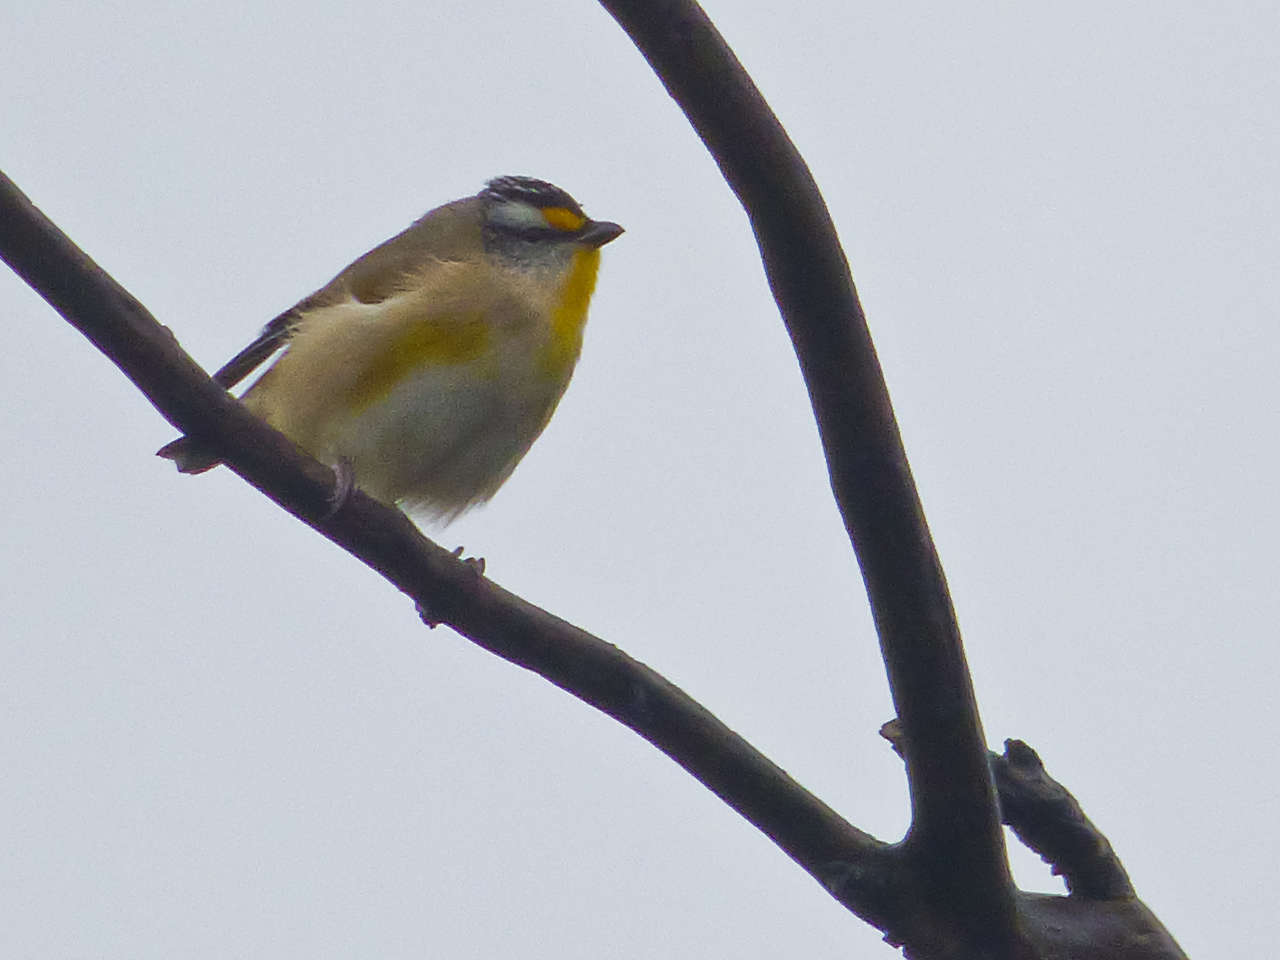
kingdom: Animalia
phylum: Chordata
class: Aves
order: Passeriformes
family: Pardalotidae
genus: Pardalotus
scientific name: Pardalotus striatus
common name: Striated pardalote
